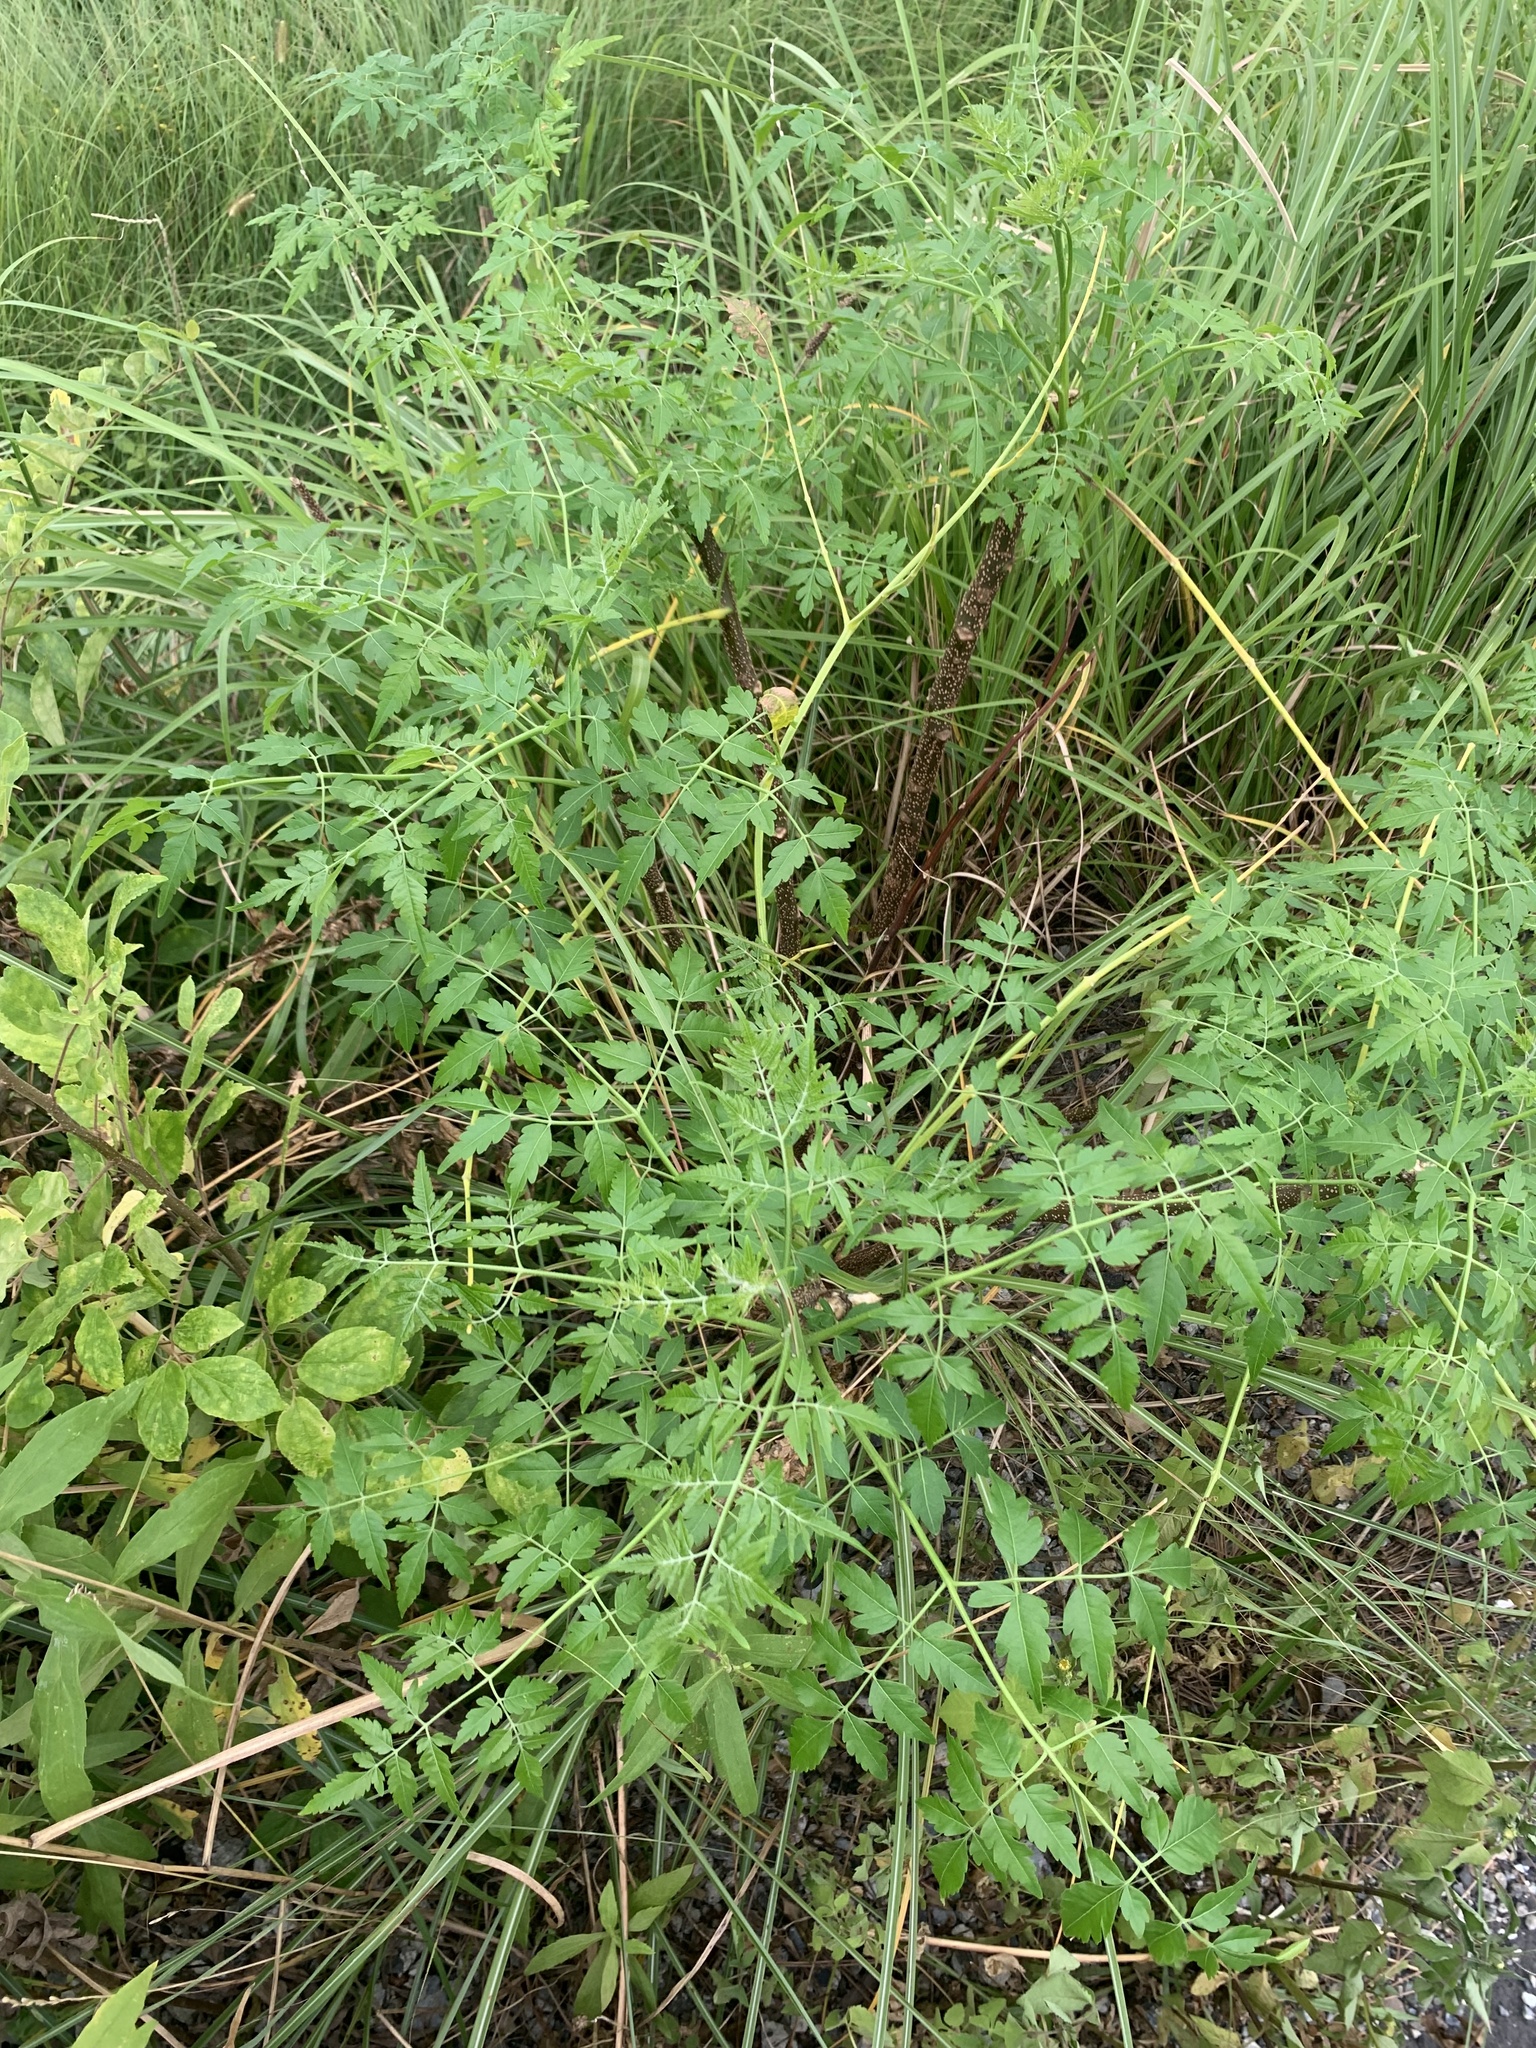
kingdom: Plantae
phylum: Tracheophyta
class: Magnoliopsida
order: Sapindales
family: Meliaceae
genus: Melia
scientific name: Melia azedarach
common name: Chinaberrytree
